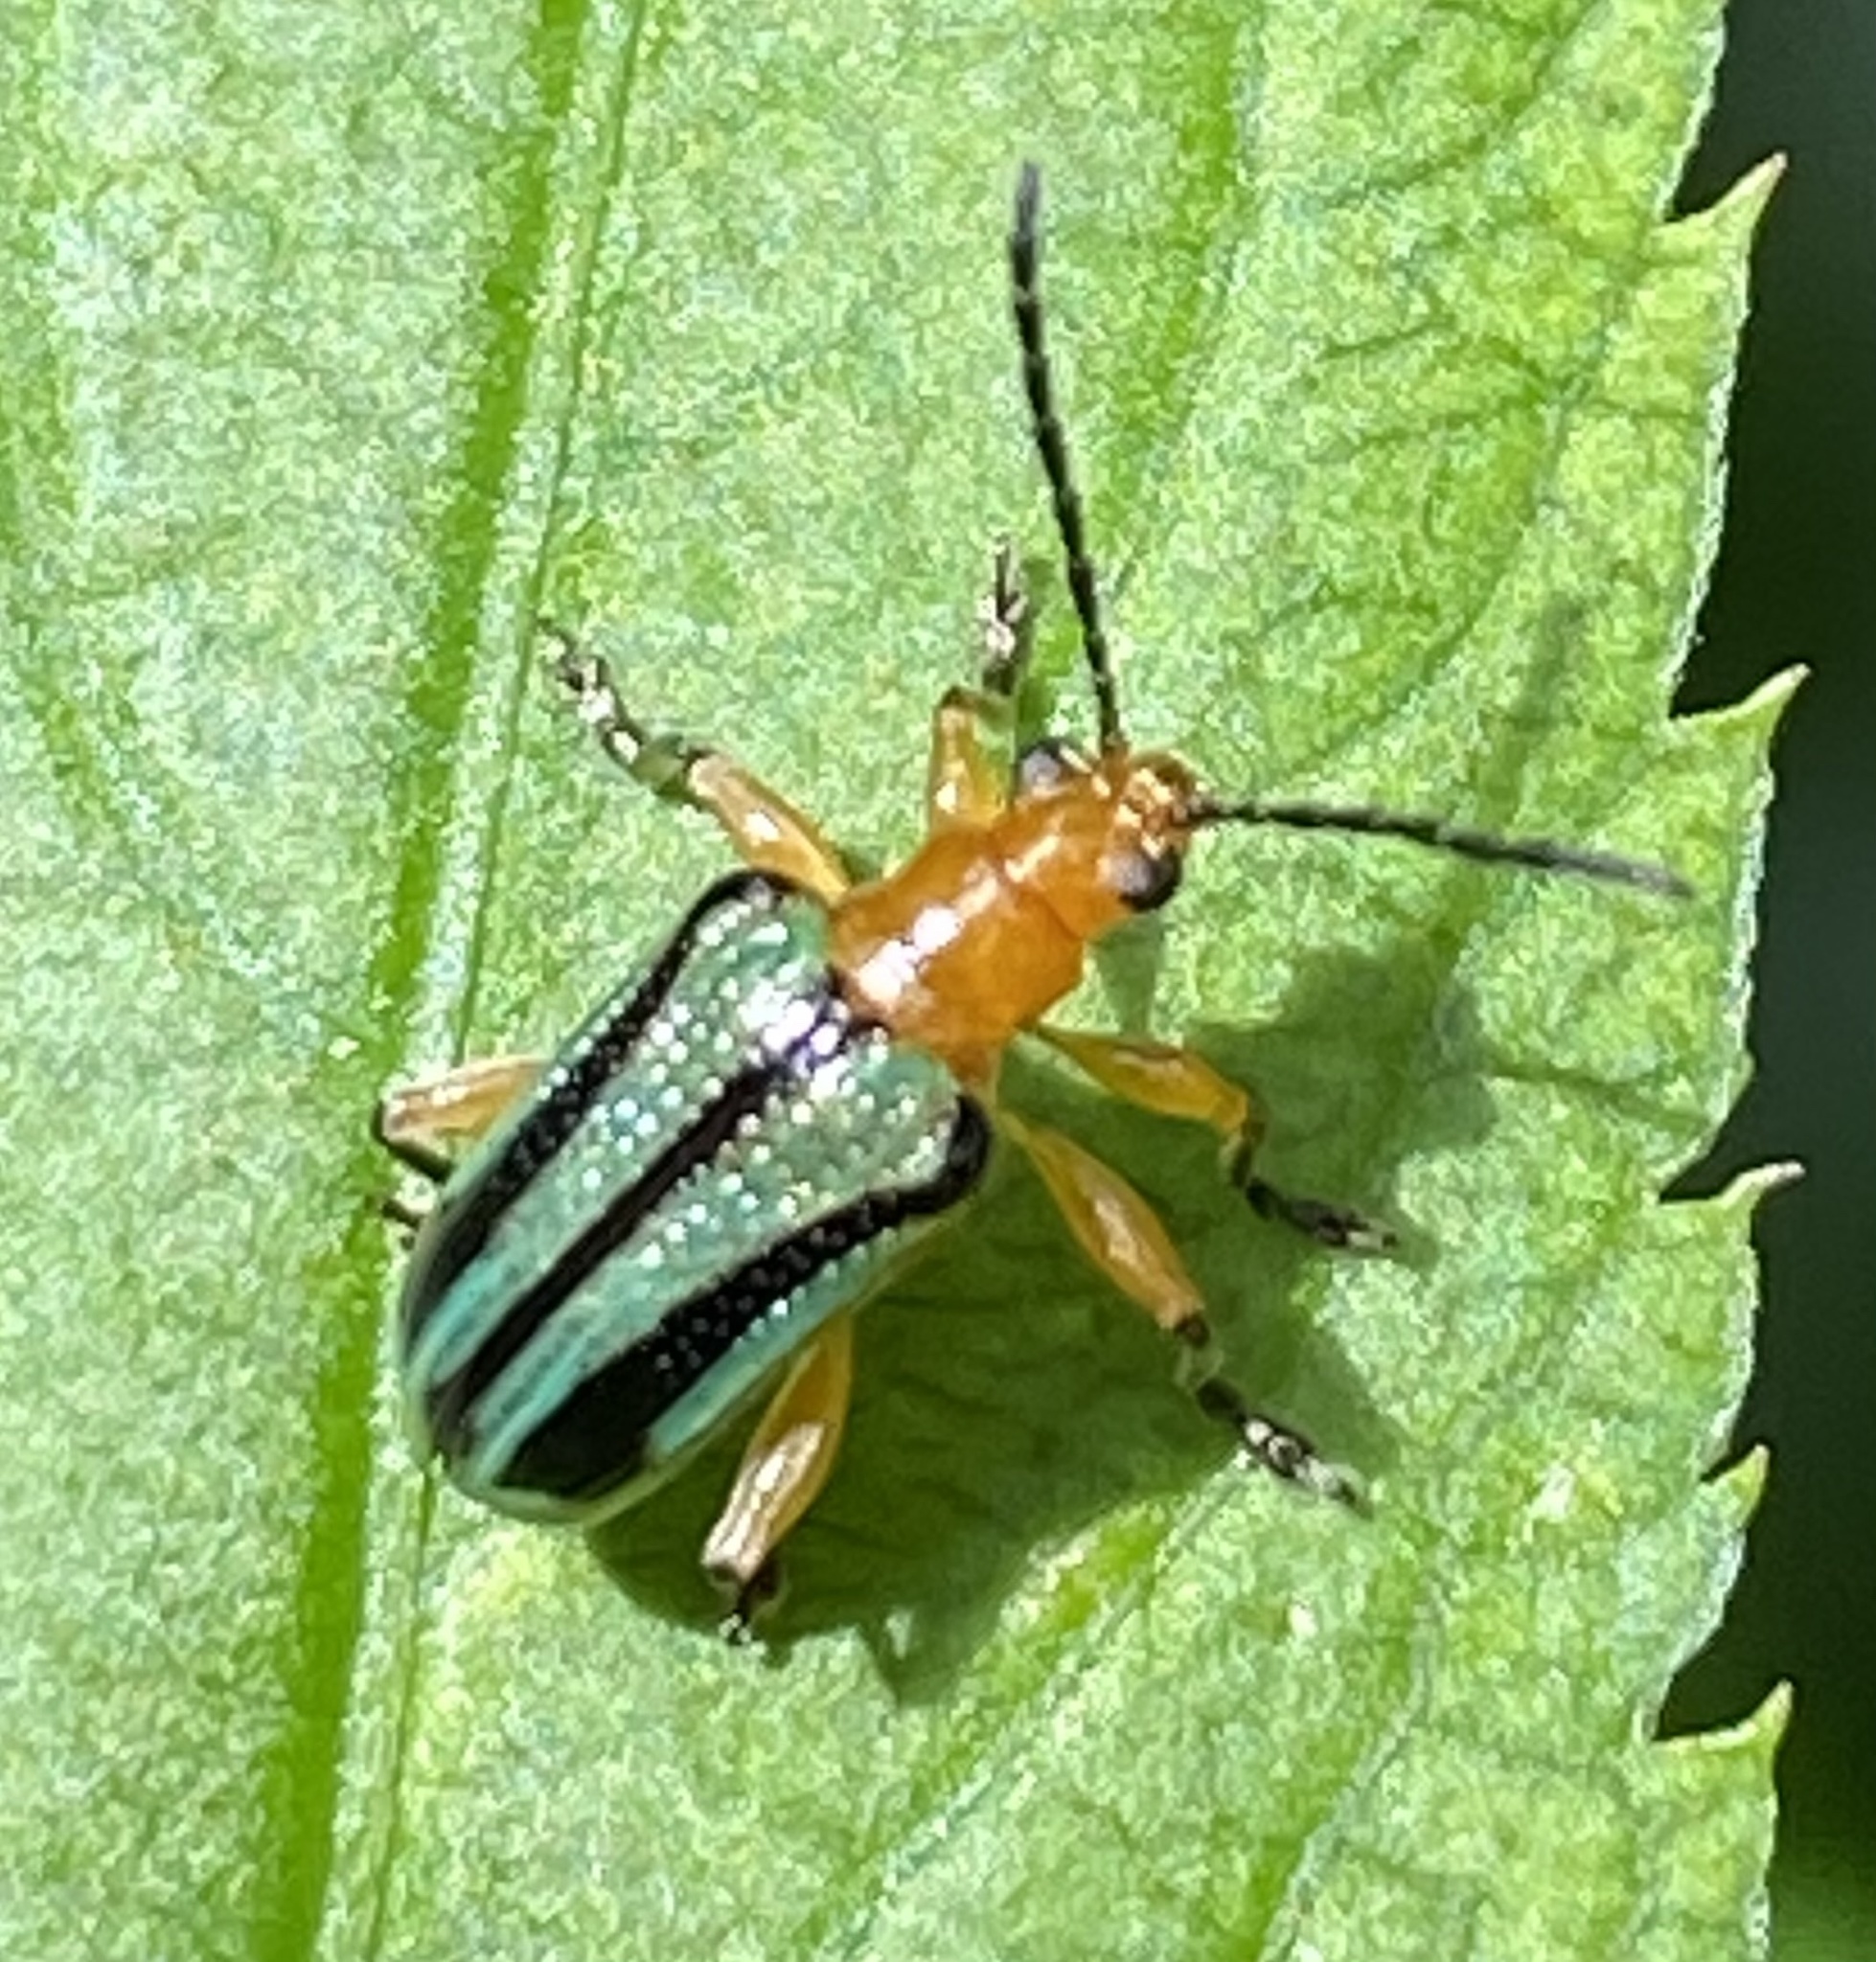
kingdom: Animalia
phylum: Arthropoda
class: Insecta
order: Coleoptera
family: Chrysomelidae
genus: Neolema
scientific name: Neolema
